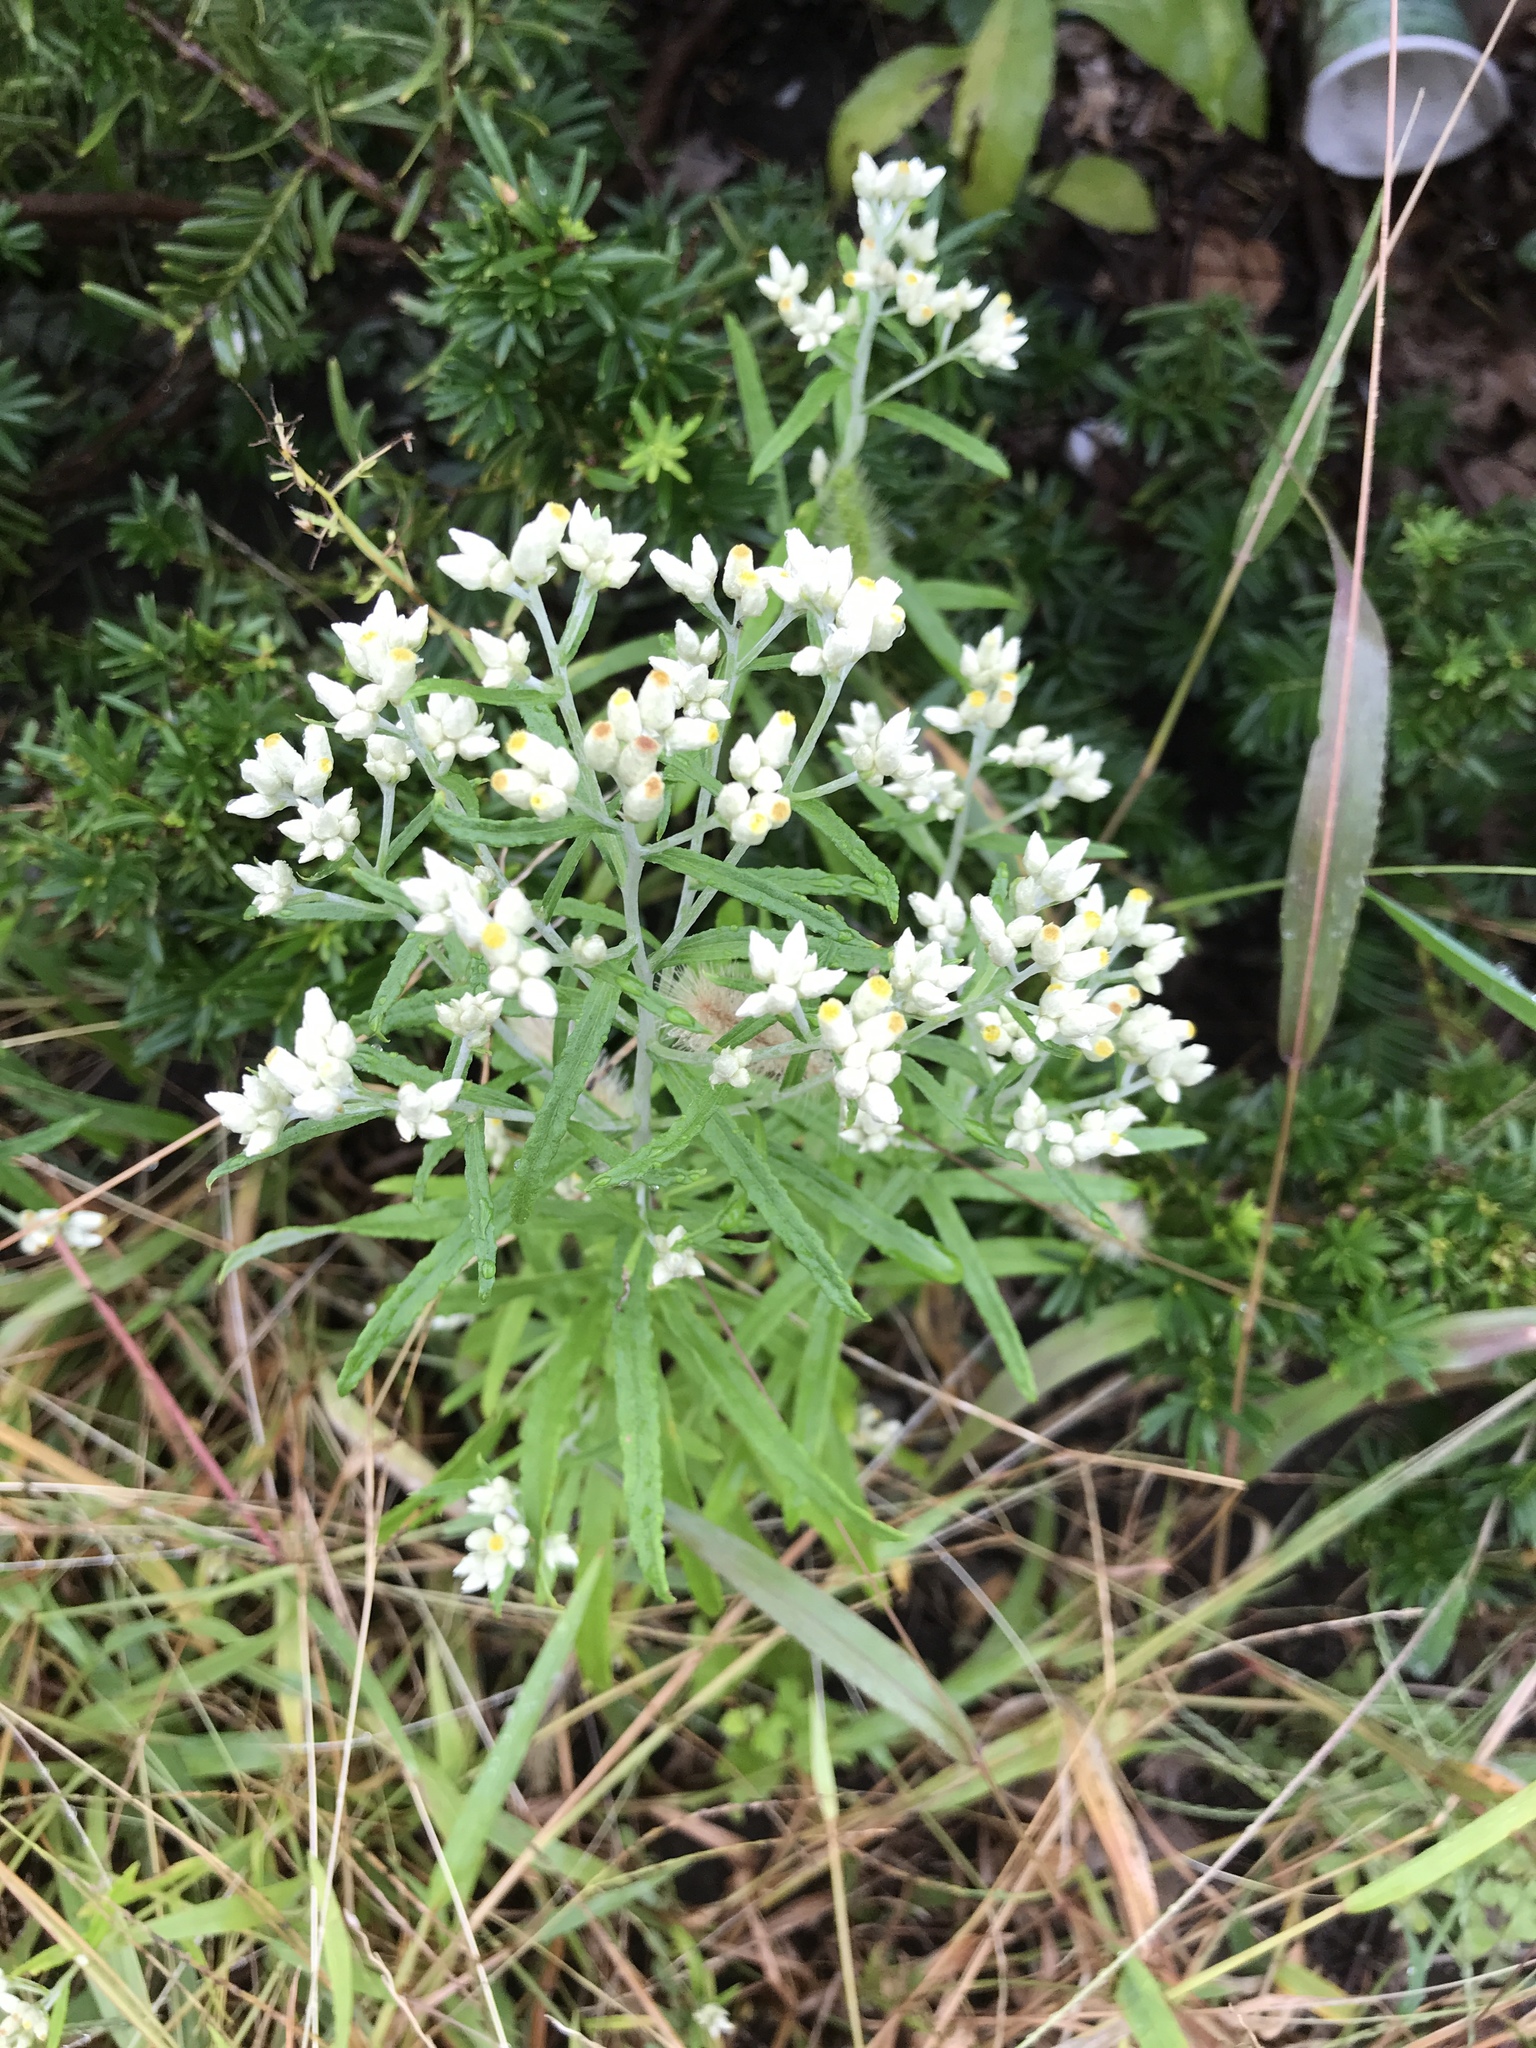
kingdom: Plantae
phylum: Tracheophyta
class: Magnoliopsida
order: Asterales
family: Asteraceae
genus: Pseudognaphalium
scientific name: Pseudognaphalium obtusifolium
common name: Eastern rabbit-tobacco
